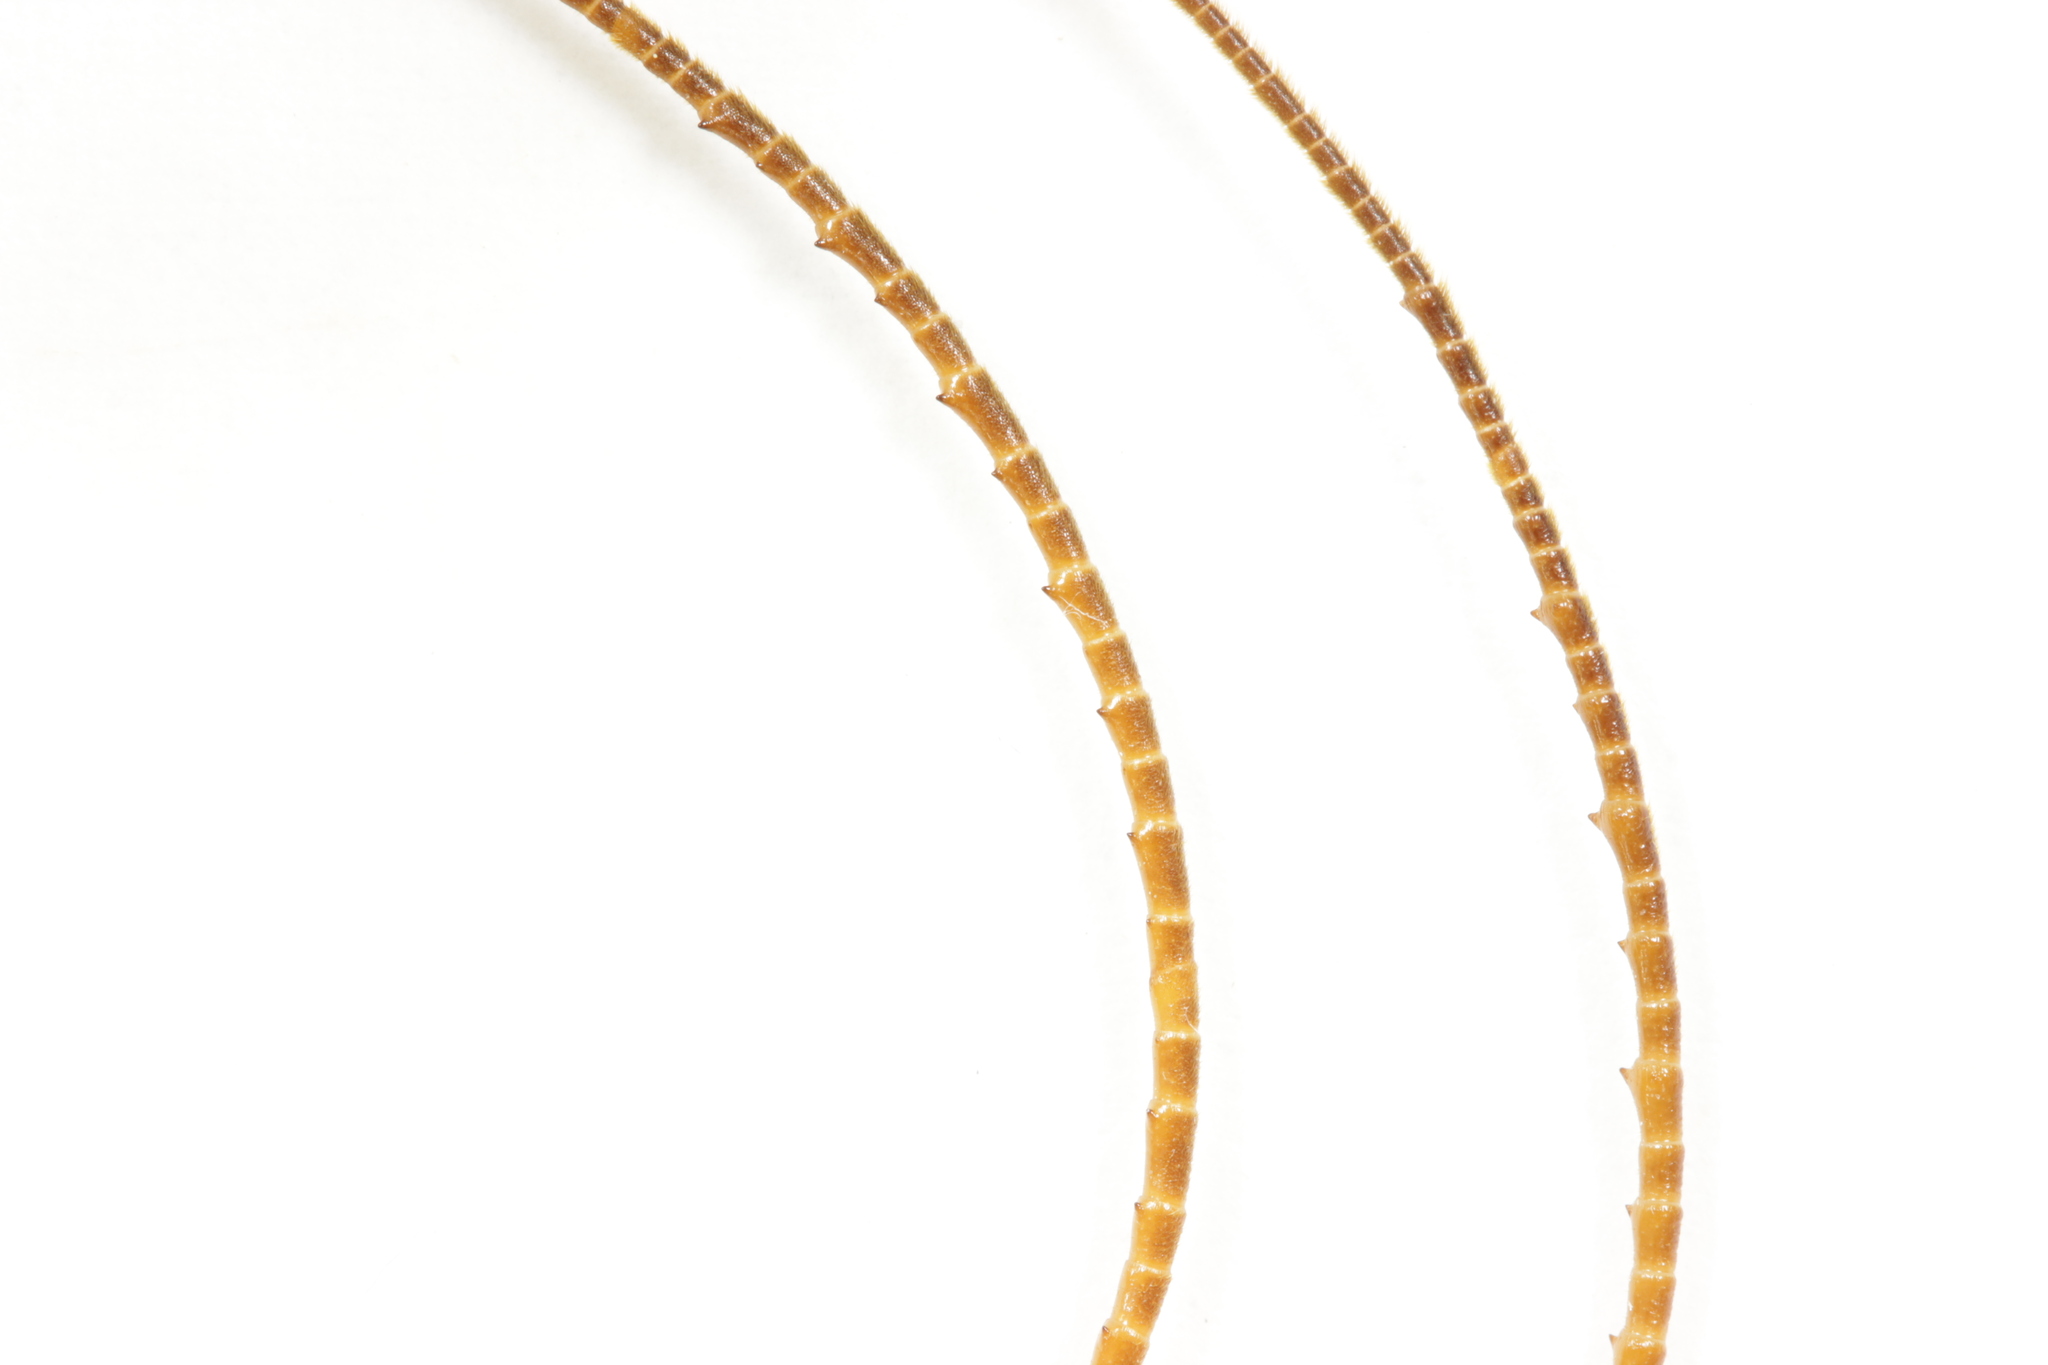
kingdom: Animalia
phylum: Arthropoda
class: Insecta
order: Orthoptera
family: Rhaphidophoridae
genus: Pachyrhamma
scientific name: Pachyrhamma edwardsii
